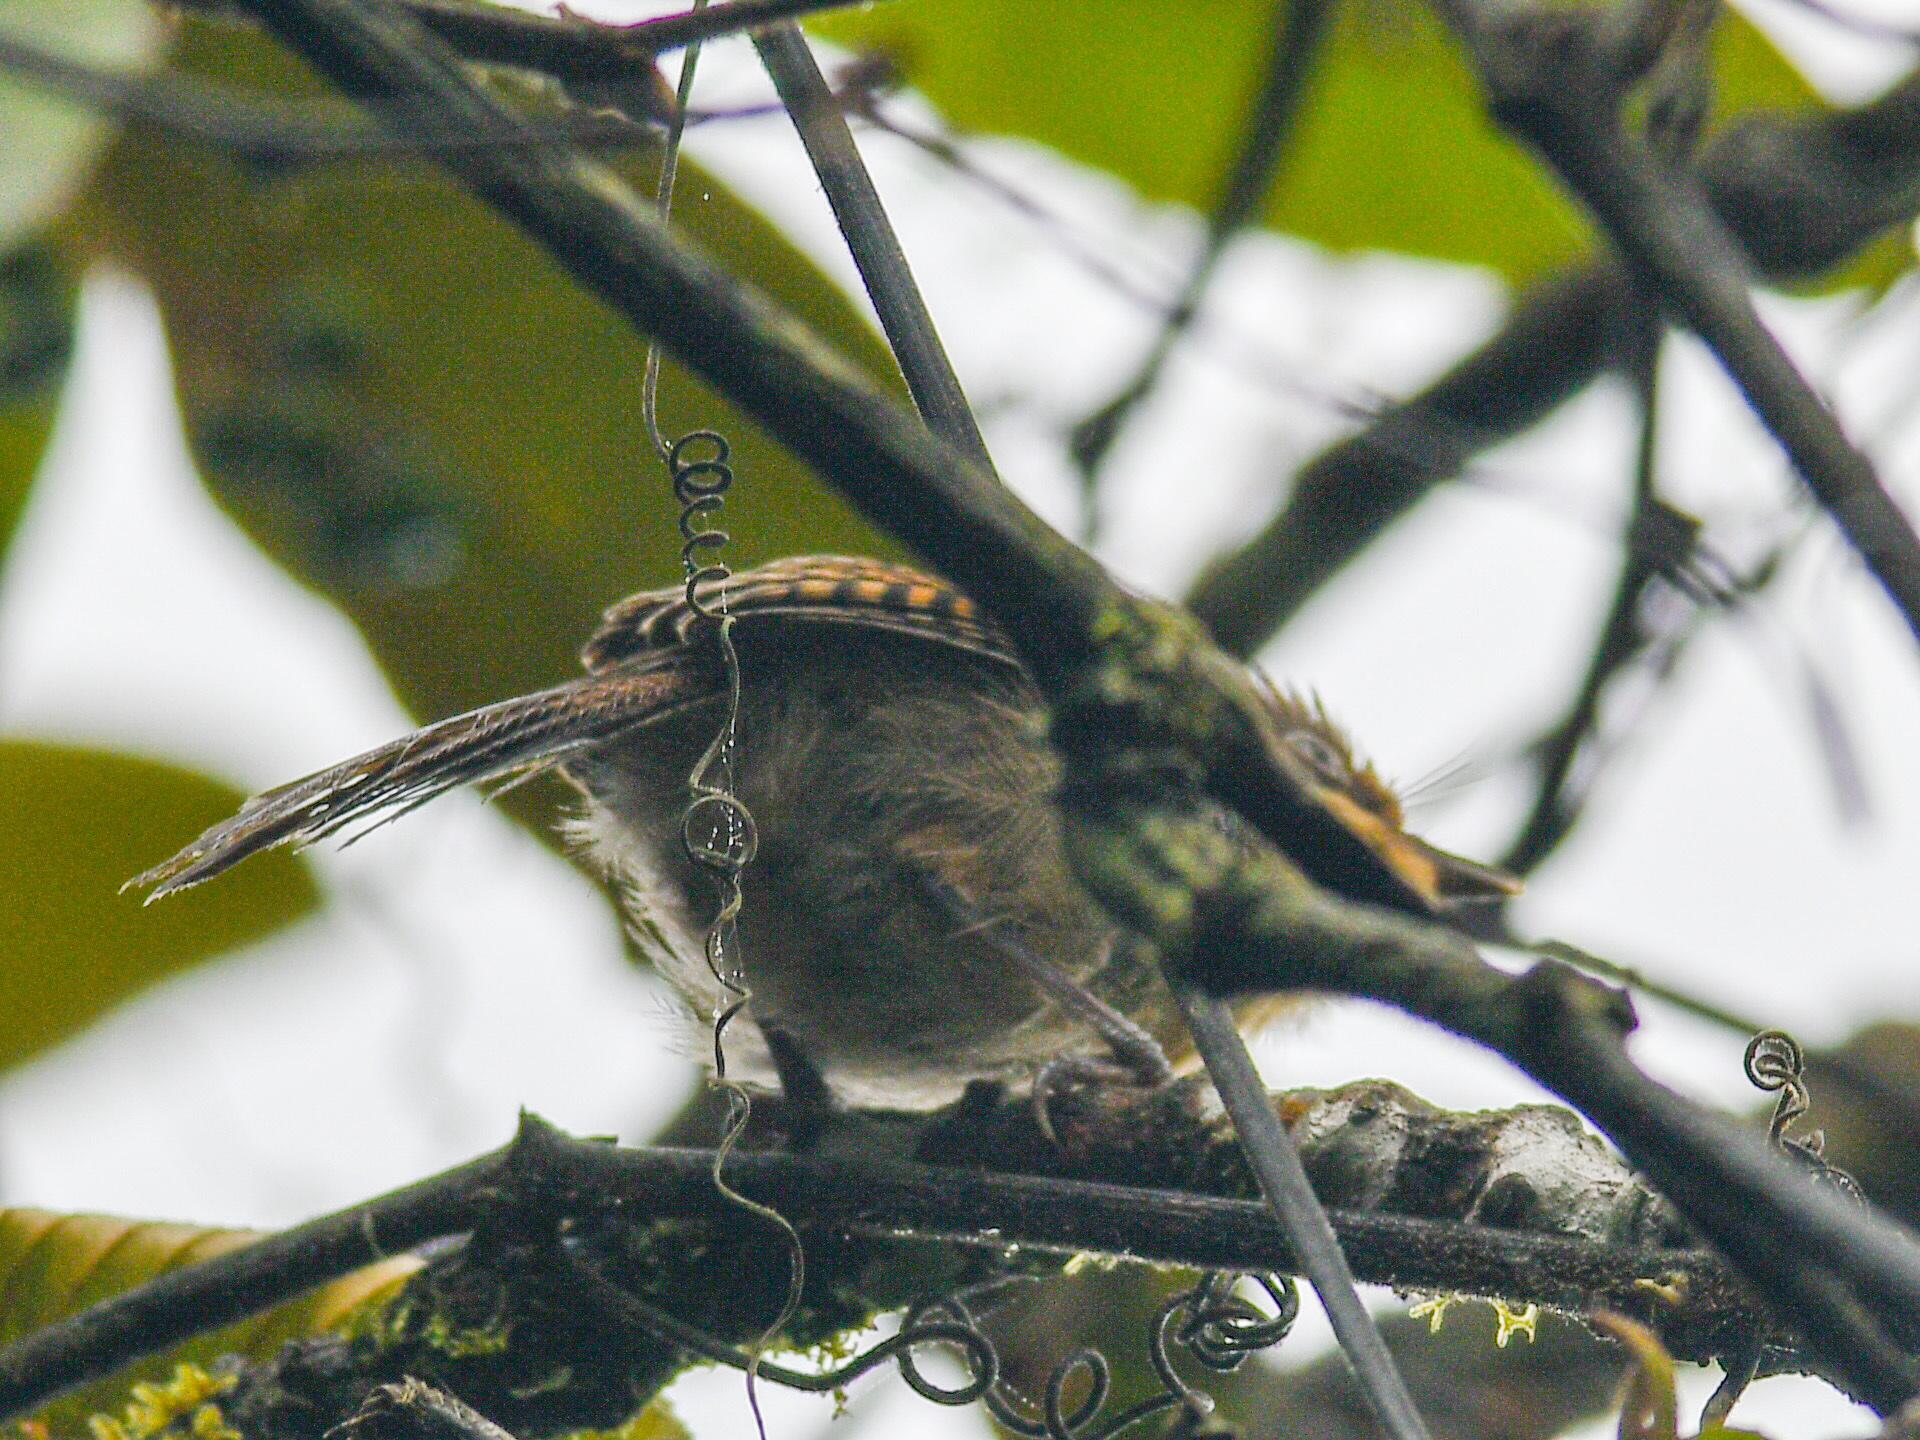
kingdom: Animalia
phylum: Chordata
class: Aves
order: Passeriformes
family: Leiothrichidae
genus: Actinodura
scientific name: Actinodura ramsayi
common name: Spectacled barwing
